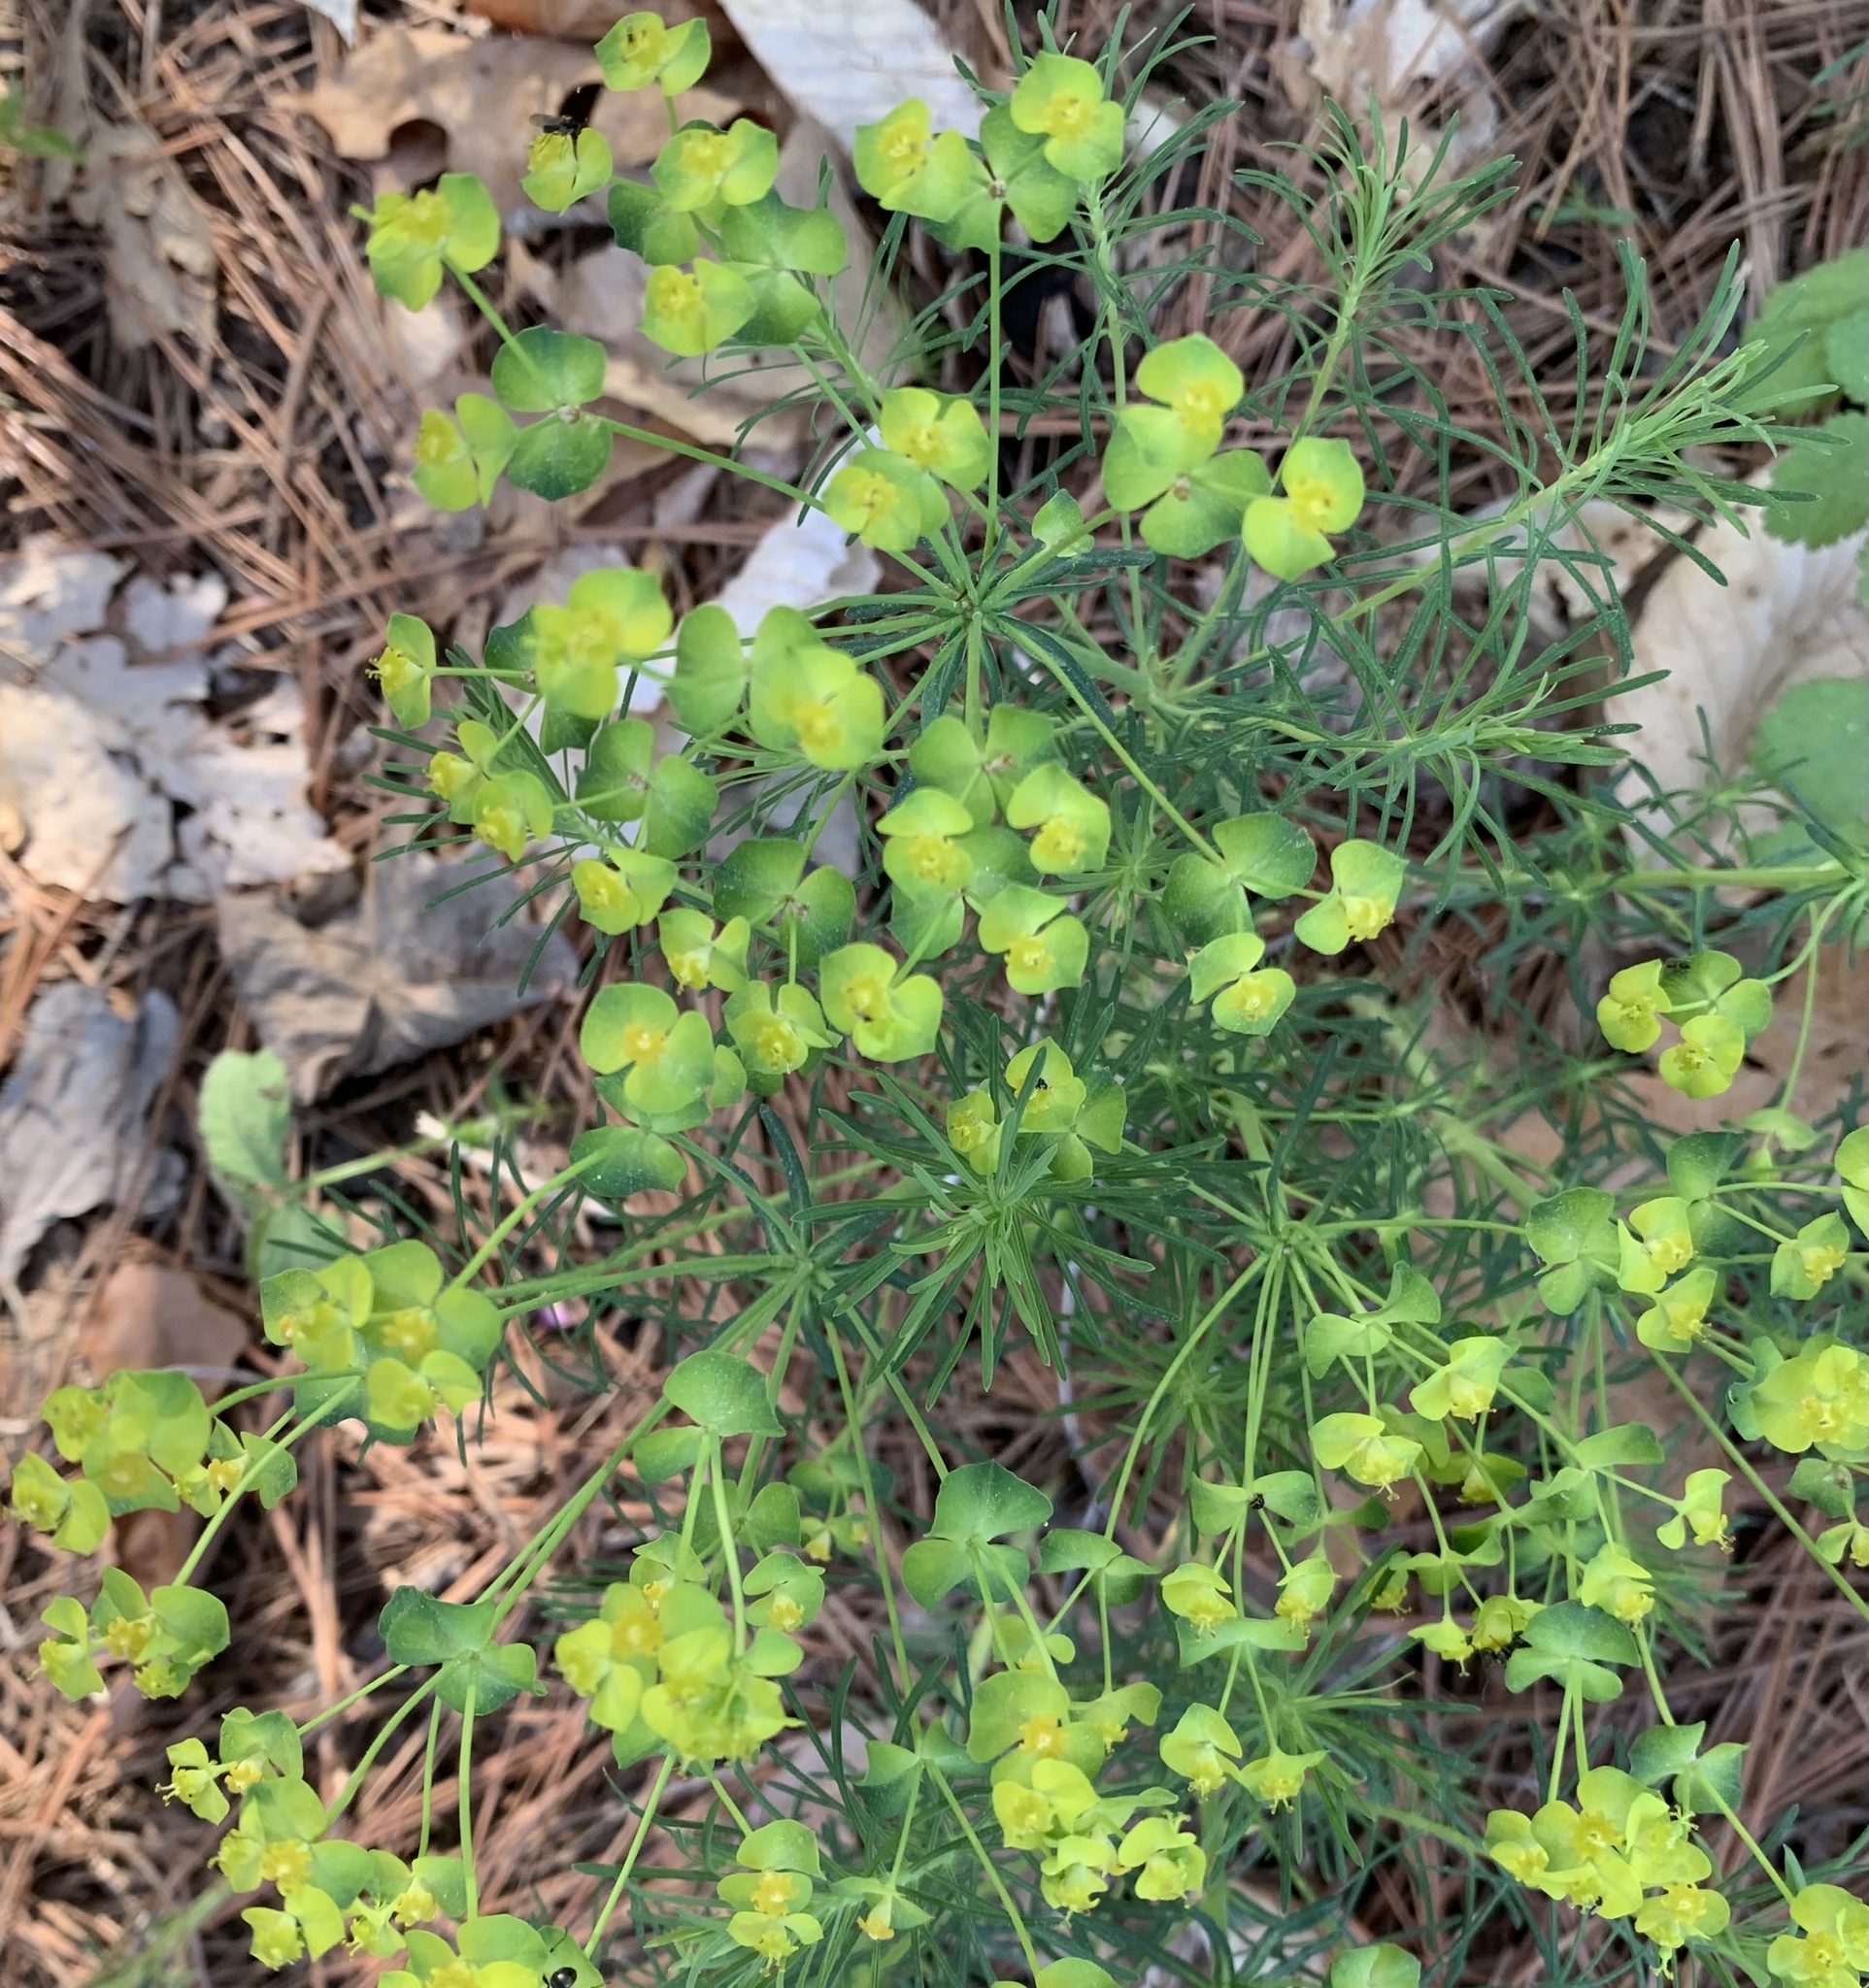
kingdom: Plantae
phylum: Tracheophyta
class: Magnoliopsida
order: Malpighiales
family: Euphorbiaceae
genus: Euphorbia
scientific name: Euphorbia cyparissias
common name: Cypress spurge
